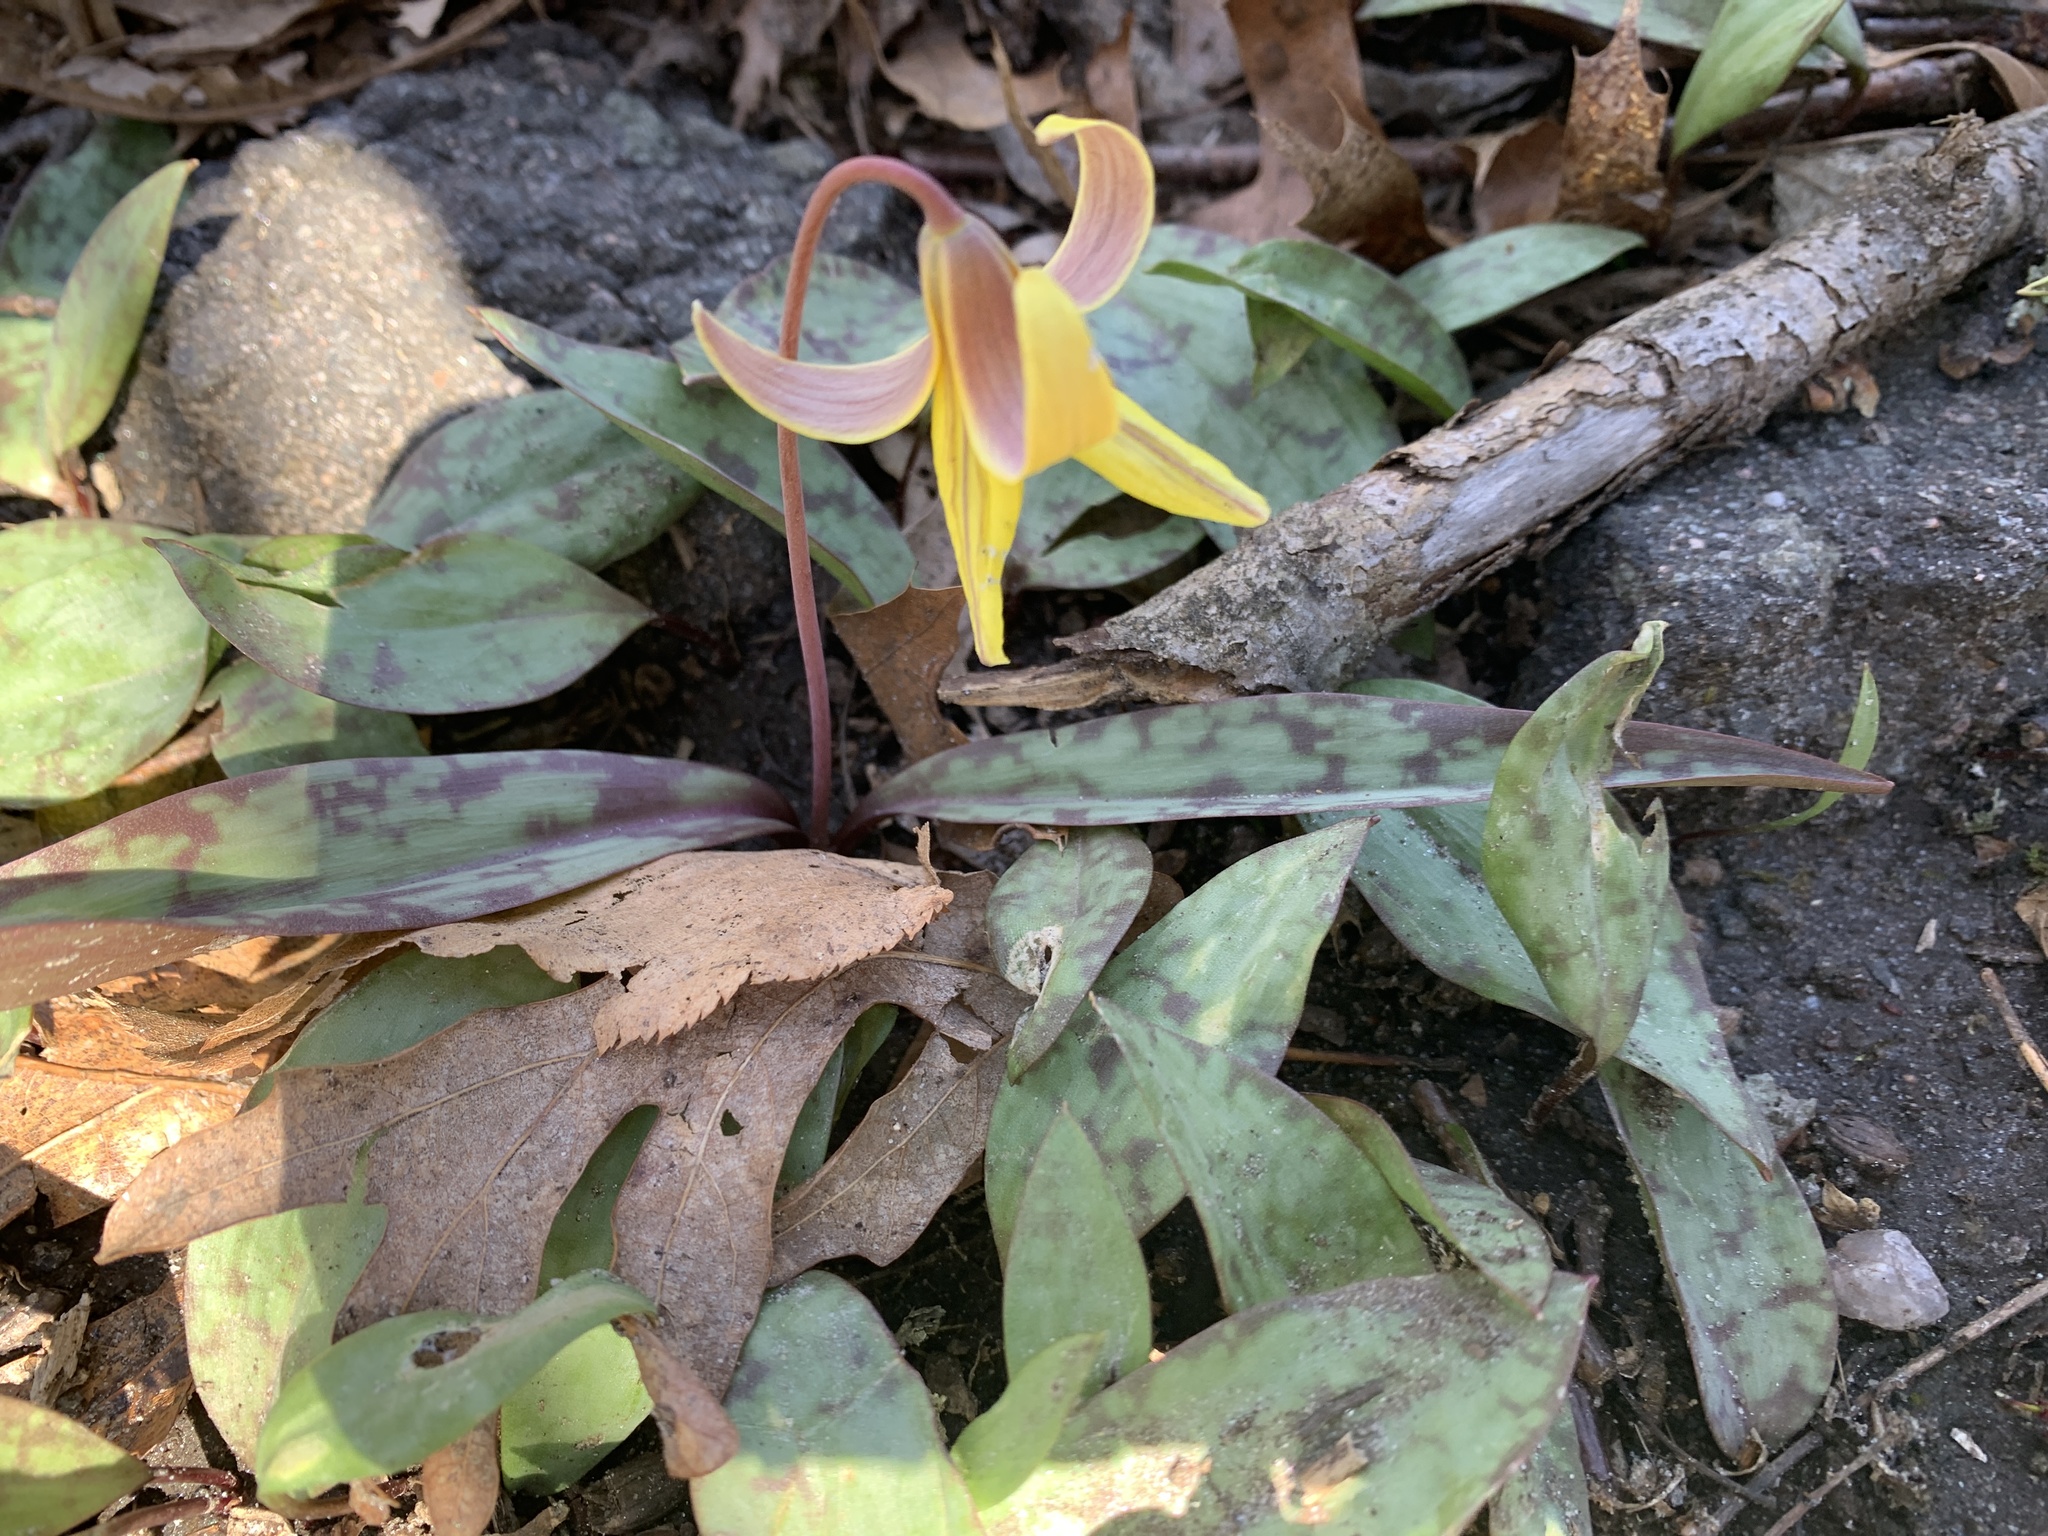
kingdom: Plantae
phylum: Tracheophyta
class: Liliopsida
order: Liliales
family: Liliaceae
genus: Erythronium
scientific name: Erythronium americanum
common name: Yellow adder's-tongue
